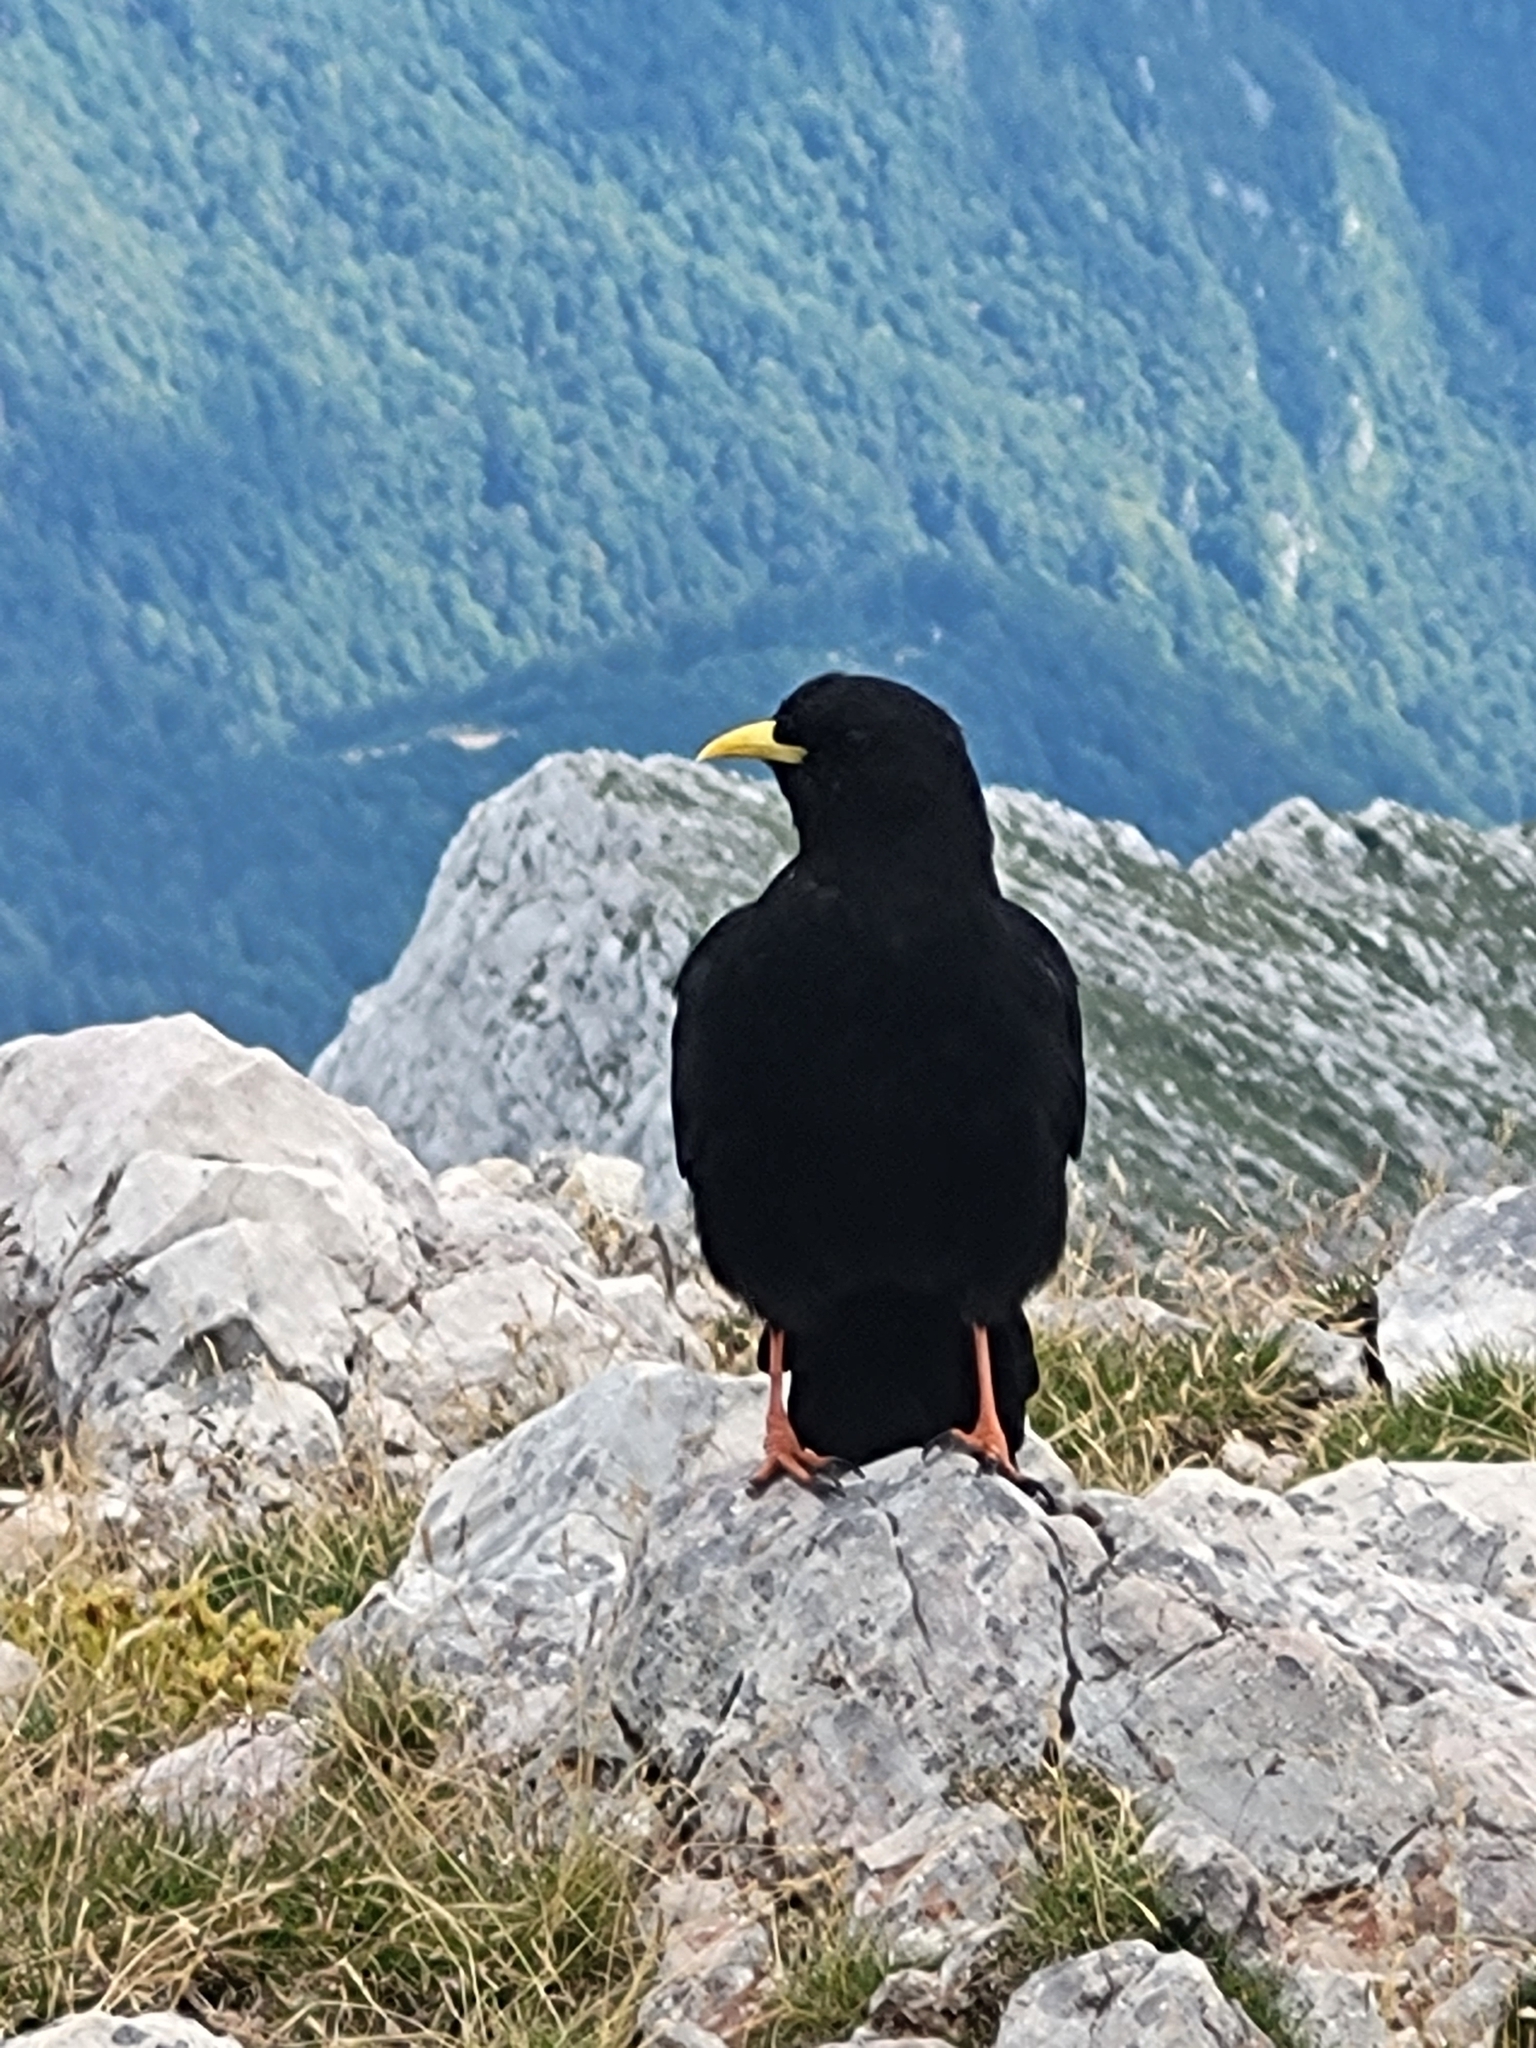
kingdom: Animalia
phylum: Chordata
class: Aves
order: Passeriformes
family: Corvidae
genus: Pyrrhocorax
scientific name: Pyrrhocorax graculus
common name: Alpine chough
